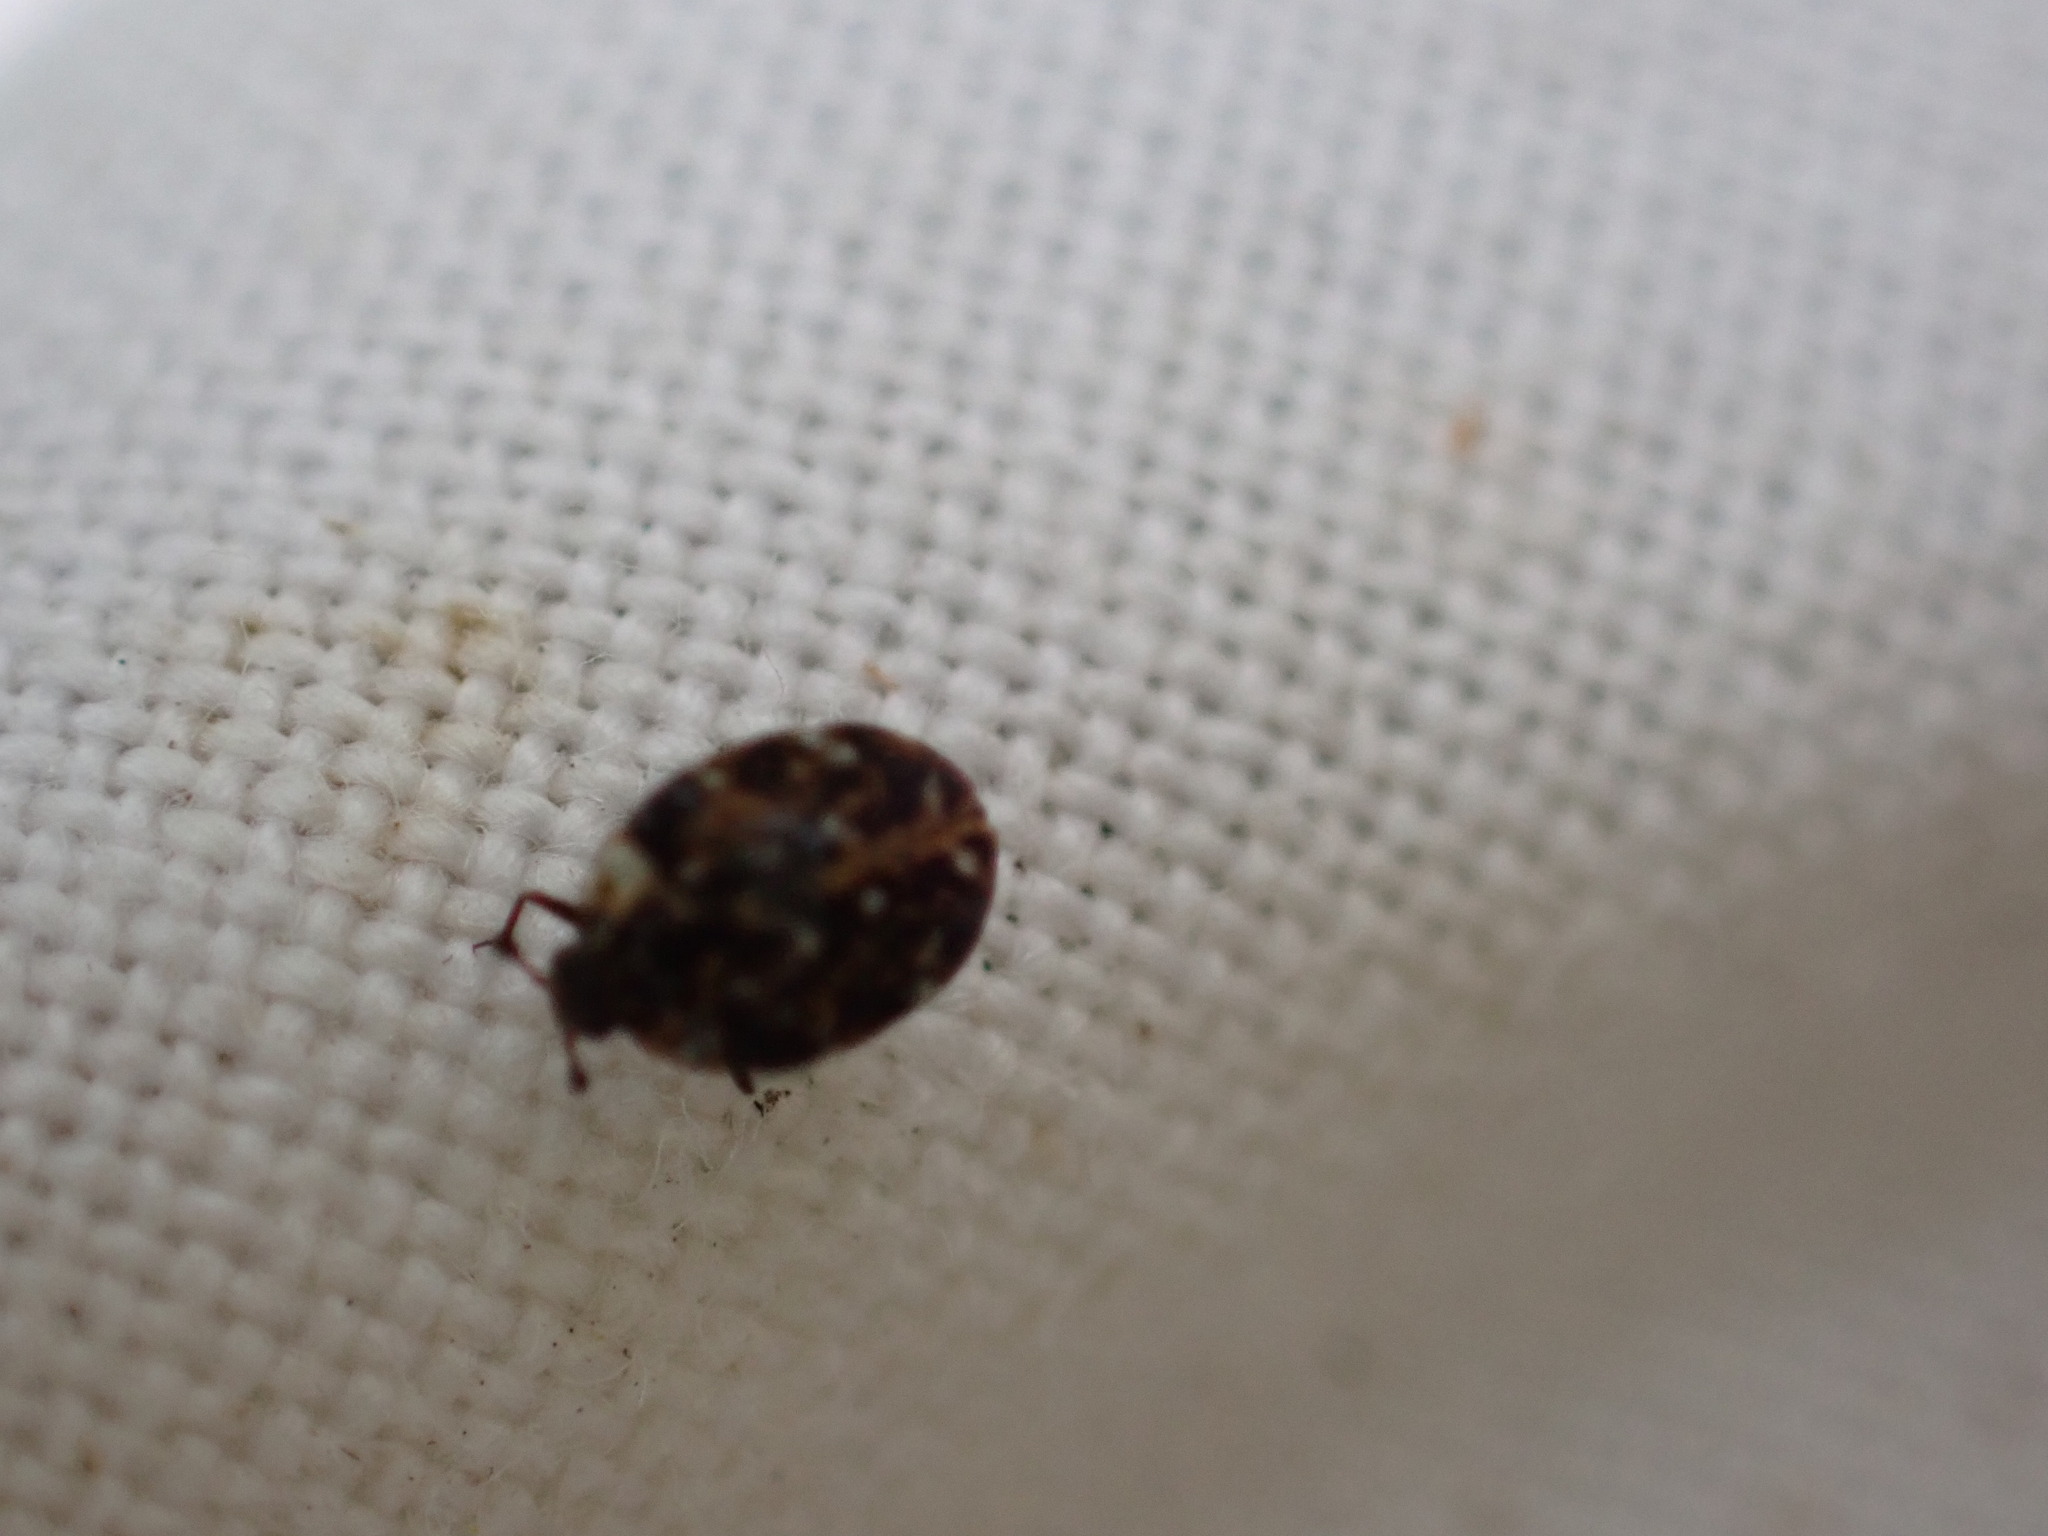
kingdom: Animalia
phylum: Arthropoda
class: Insecta
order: Coleoptera
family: Dermestidae
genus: Anthrenus
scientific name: Anthrenus festivus
